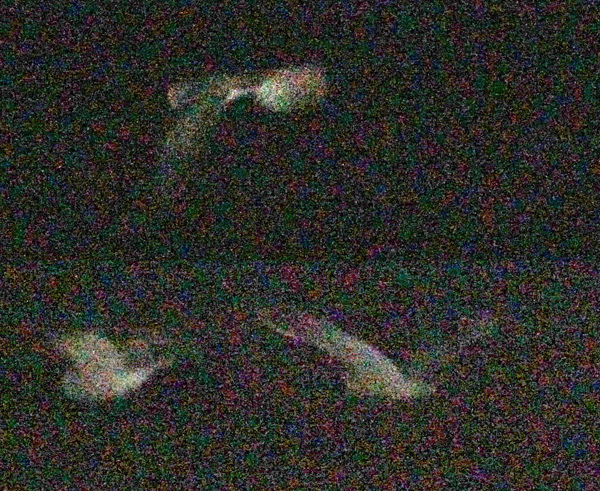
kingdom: Animalia
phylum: Chordata
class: Aves
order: Strigiformes
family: Strigidae
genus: Otus
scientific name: Otus scops
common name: Eurasian scops owl
